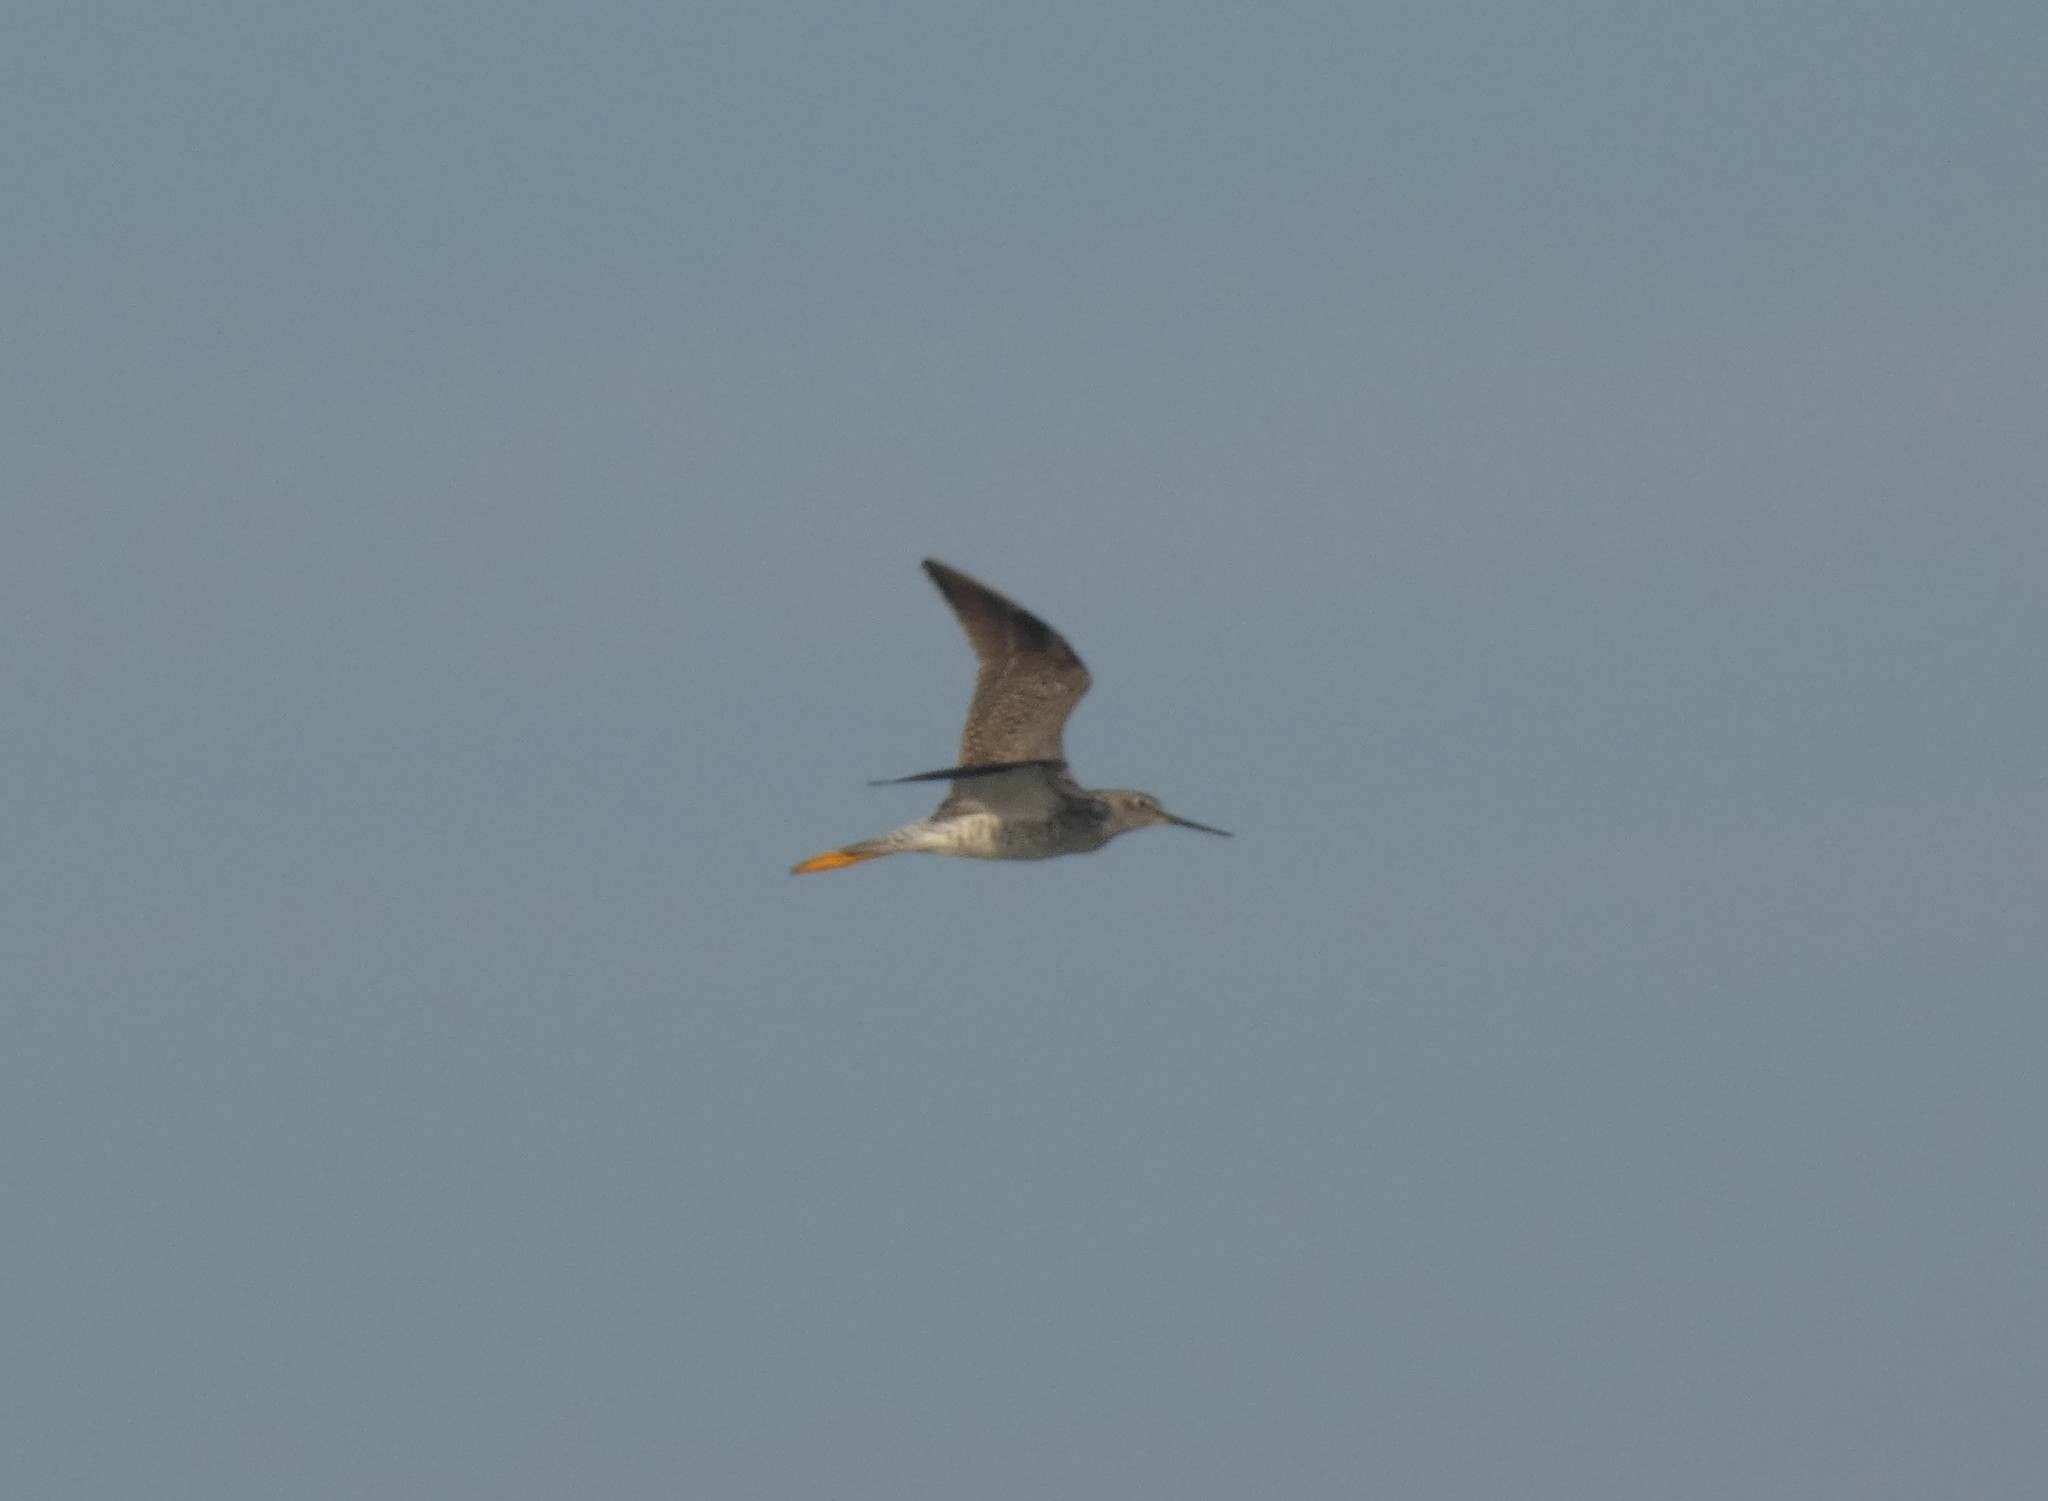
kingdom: Animalia
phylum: Chordata
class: Aves
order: Charadriiformes
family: Scolopacidae
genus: Tringa
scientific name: Tringa melanoleuca
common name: Greater yellowlegs
